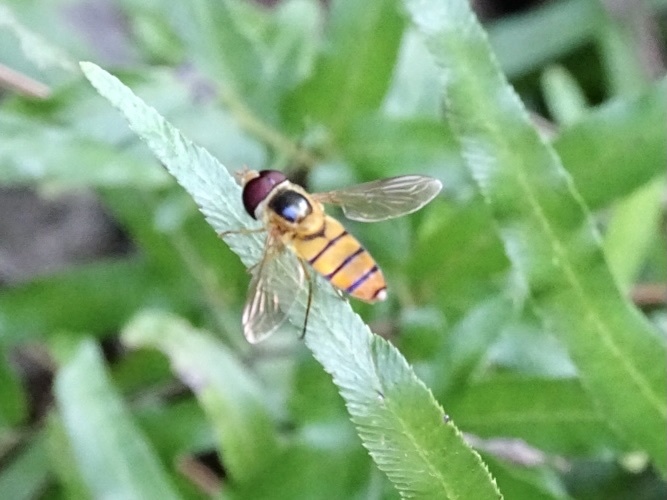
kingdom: Animalia
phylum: Arthropoda
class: Insecta
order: Diptera
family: Syrphidae
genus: Asarkina
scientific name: Asarkina porcina
